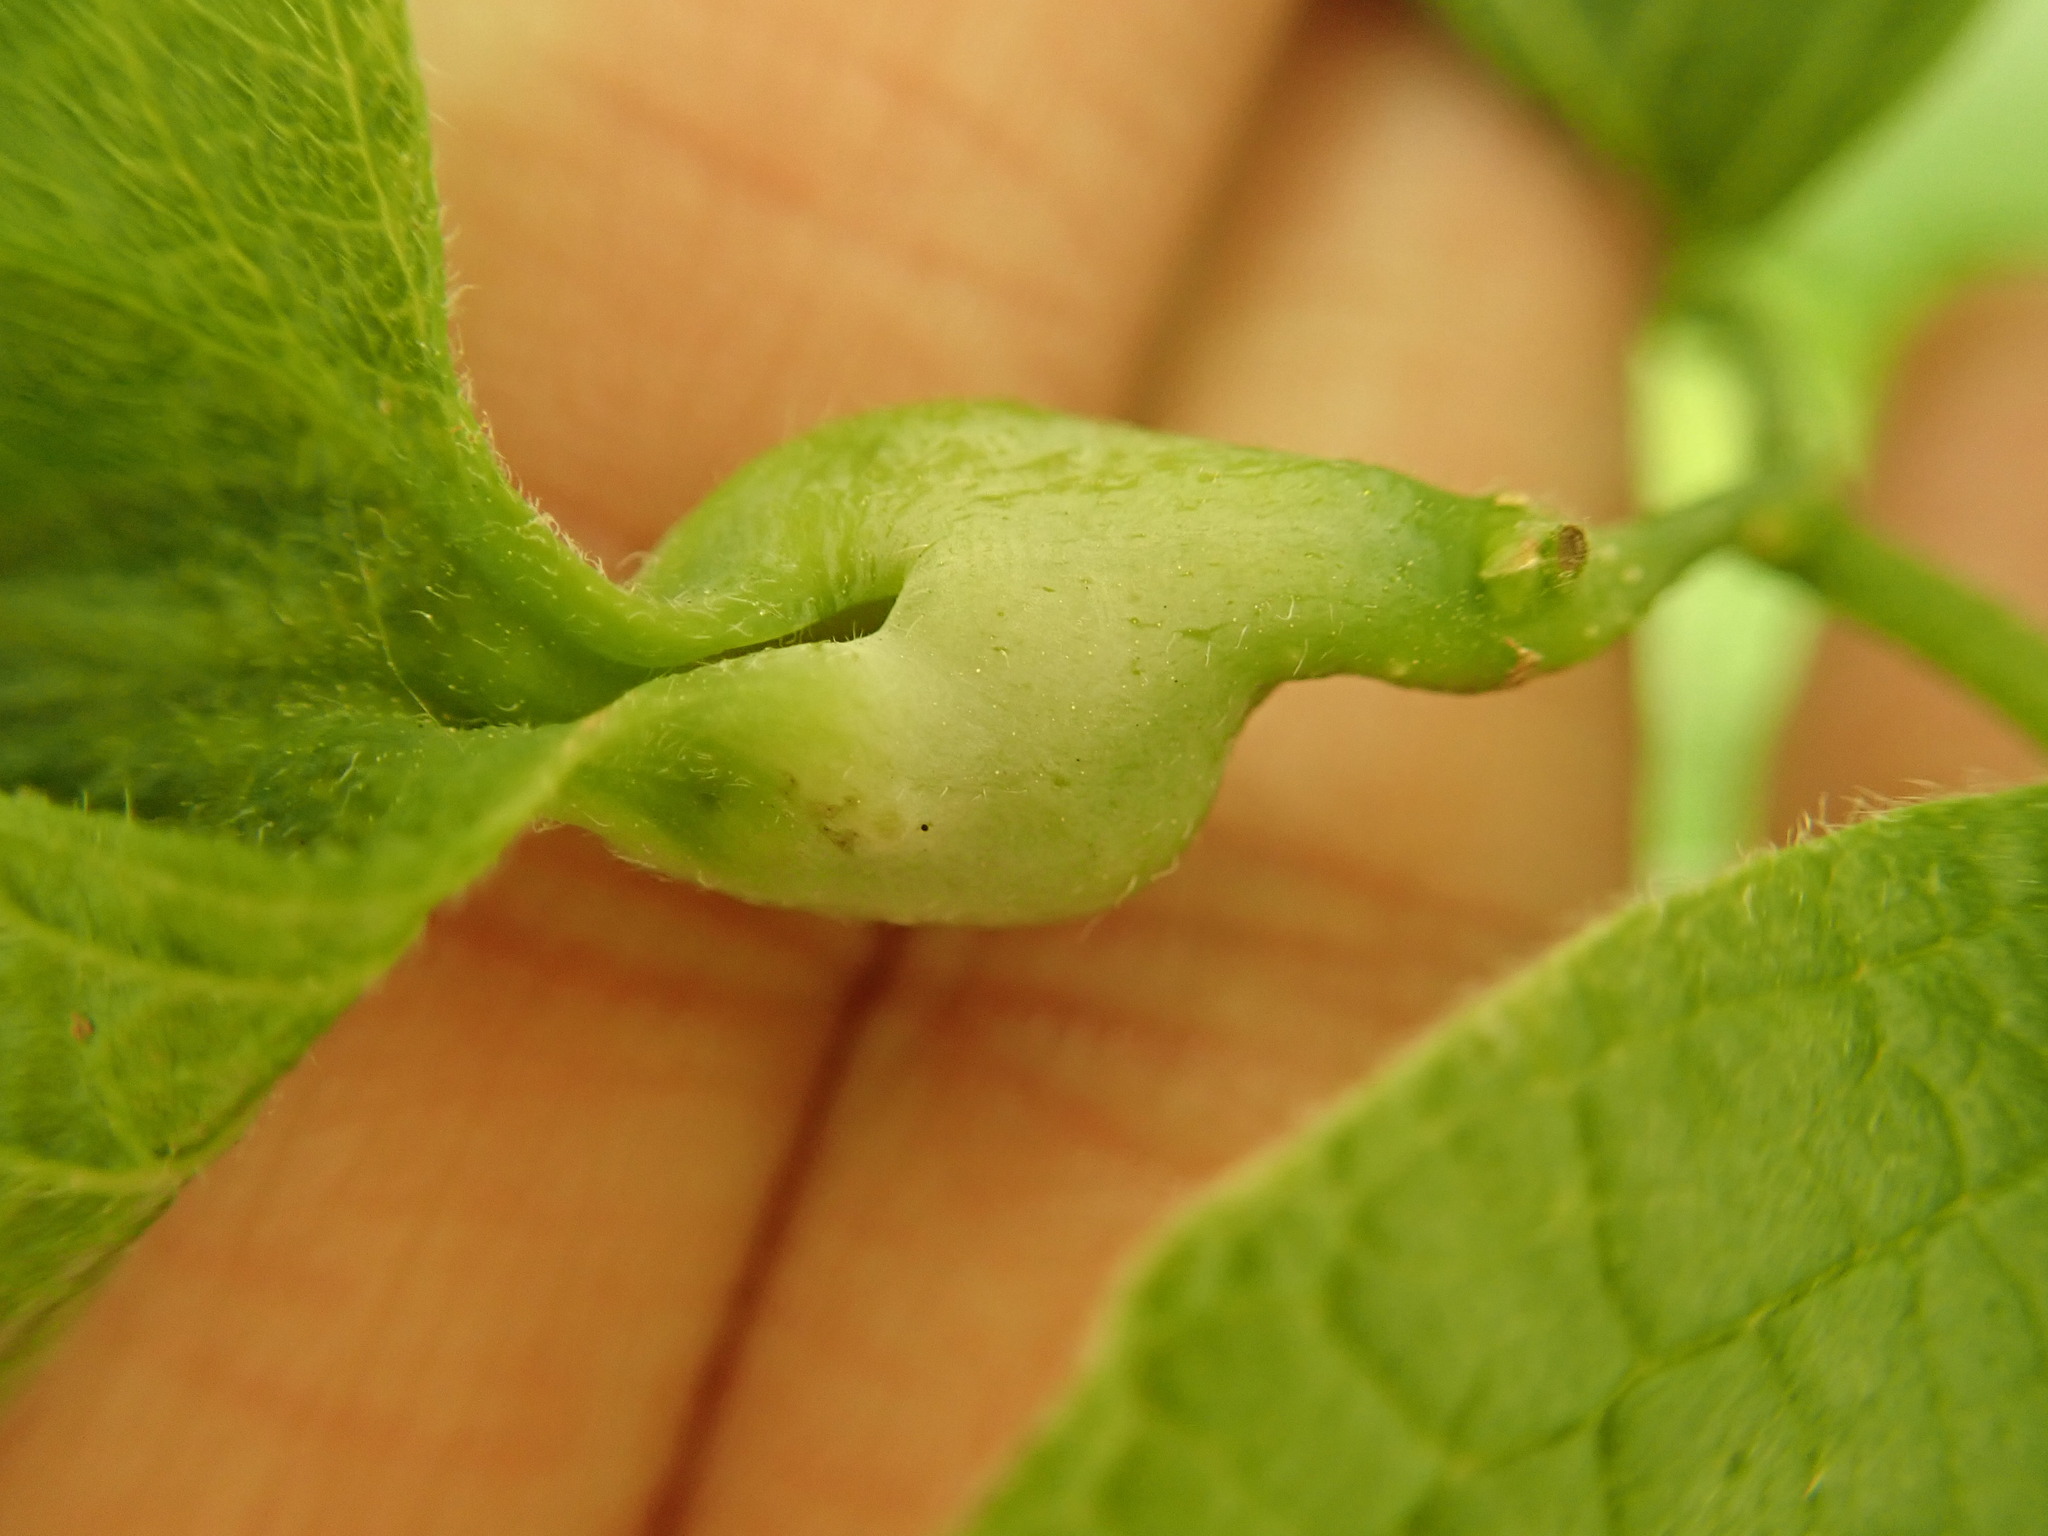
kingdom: Animalia
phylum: Arthropoda
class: Insecta
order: Hemiptera
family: Aphalaridae
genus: Pachypsylla
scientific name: Pachypsylla venusta
